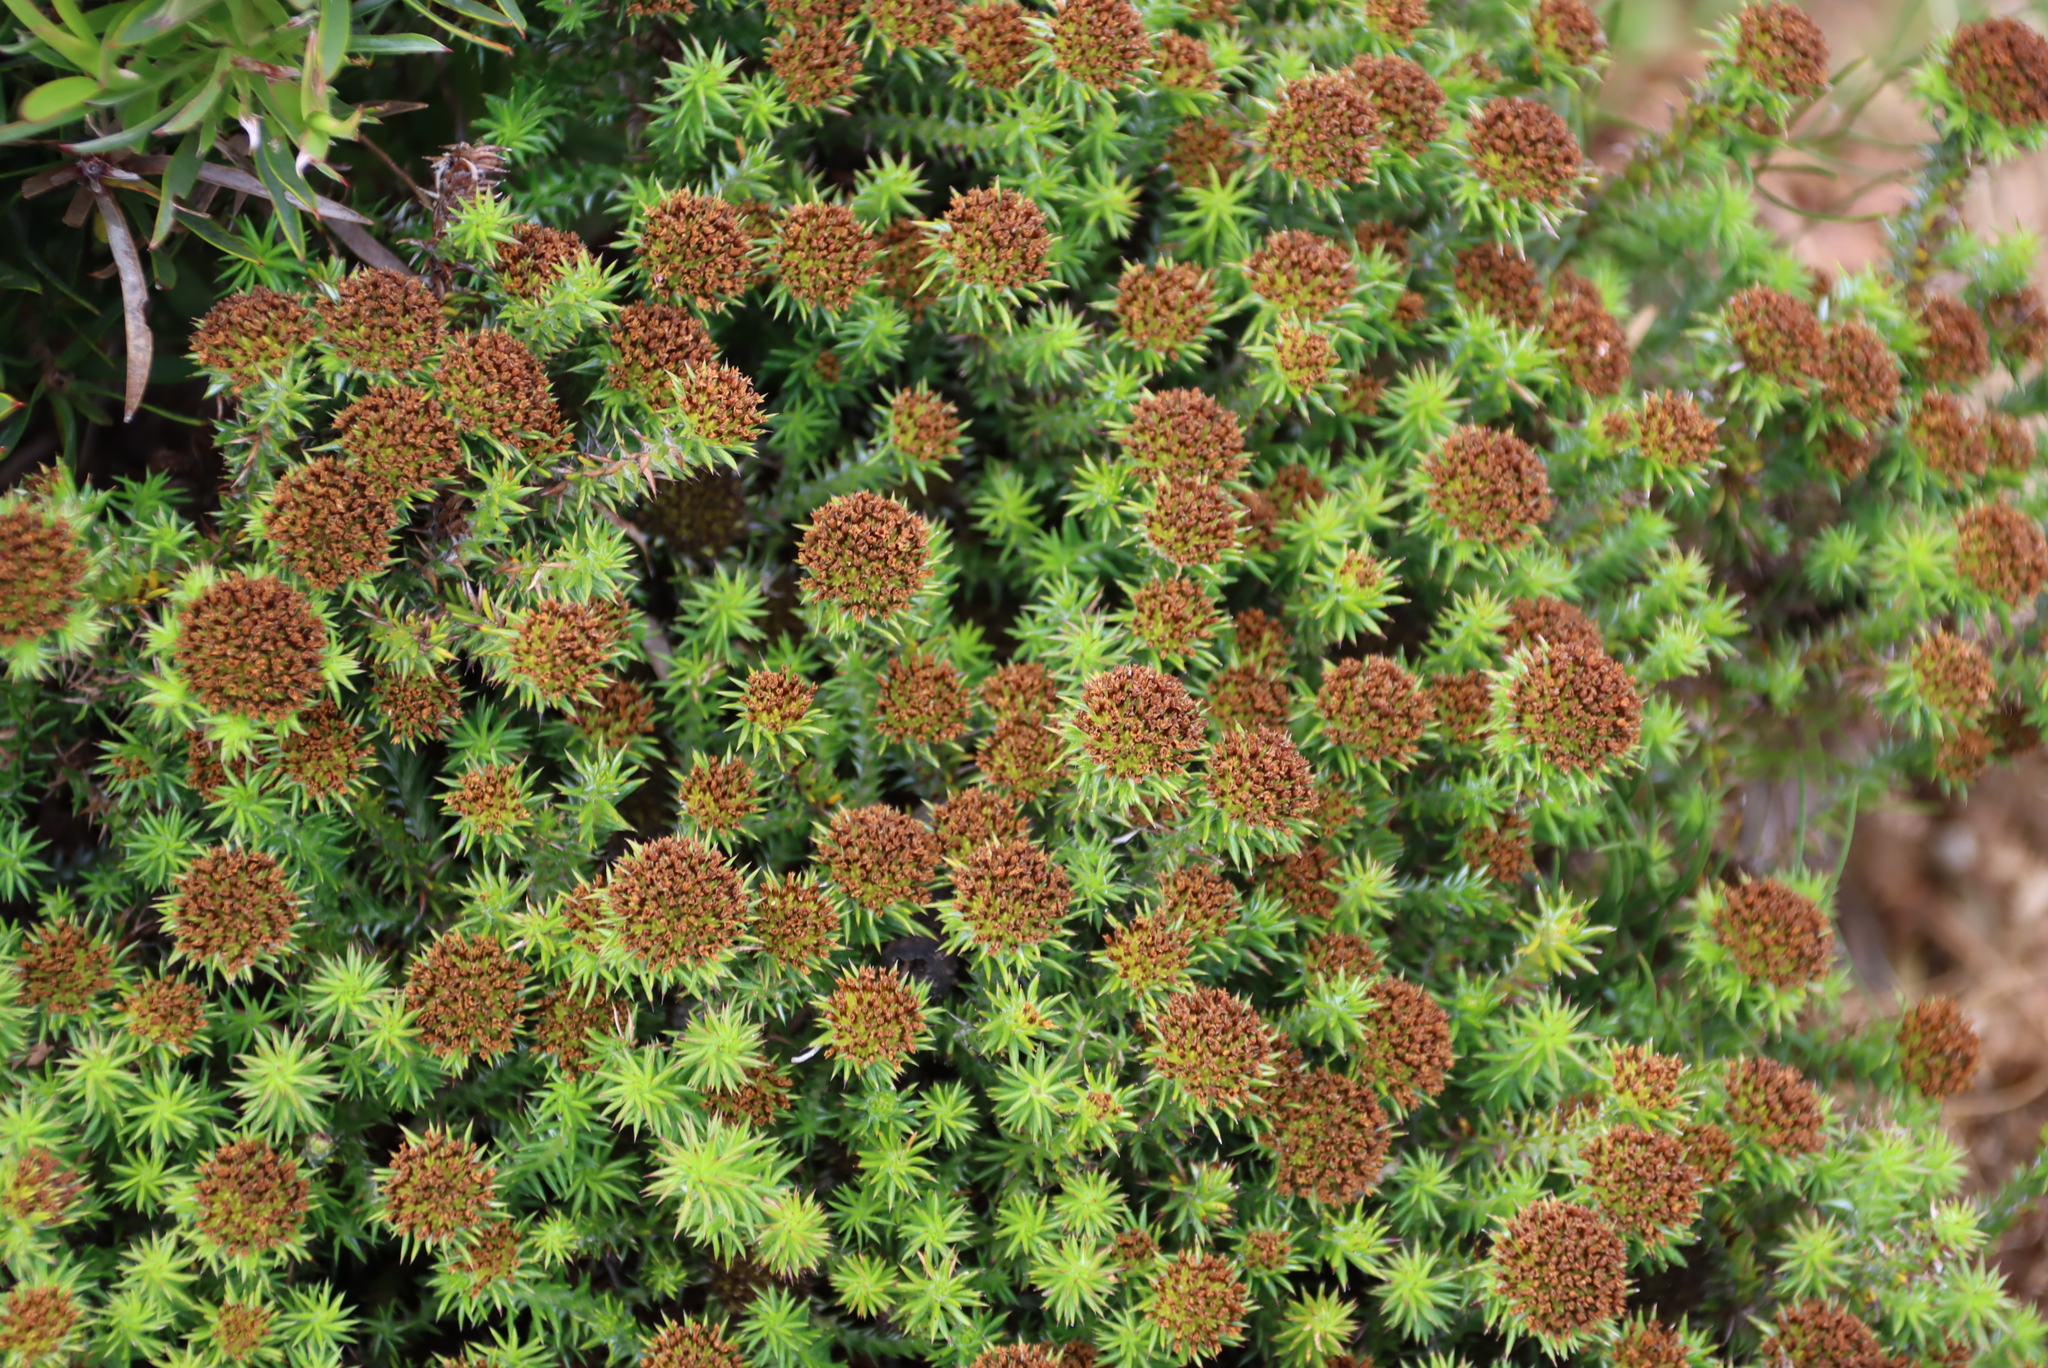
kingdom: Plantae
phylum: Tracheophyta
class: Magnoliopsida
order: Asterales
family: Asteraceae
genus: Stoebe
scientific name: Stoebe aethiopica
